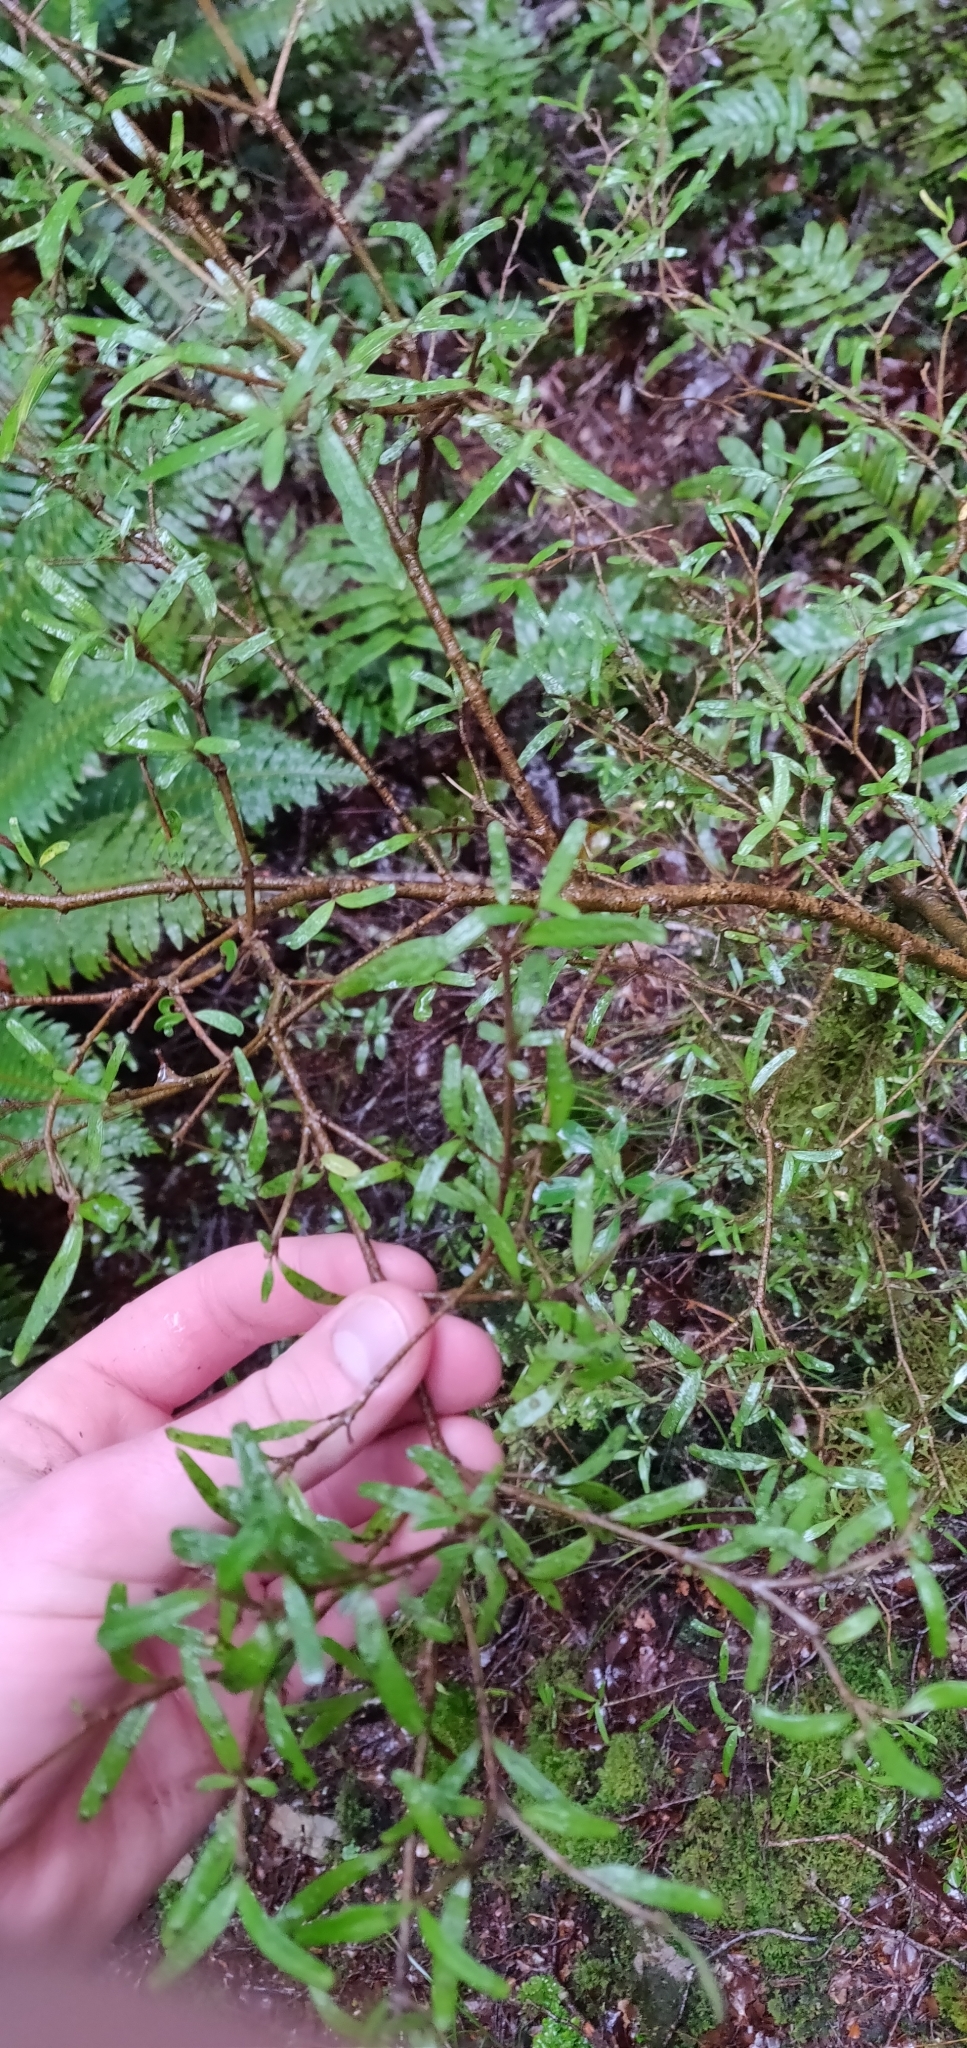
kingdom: Plantae
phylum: Tracheophyta
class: Magnoliopsida
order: Gentianales
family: Rubiaceae
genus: Coprosma
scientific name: Coprosma linariifolia
